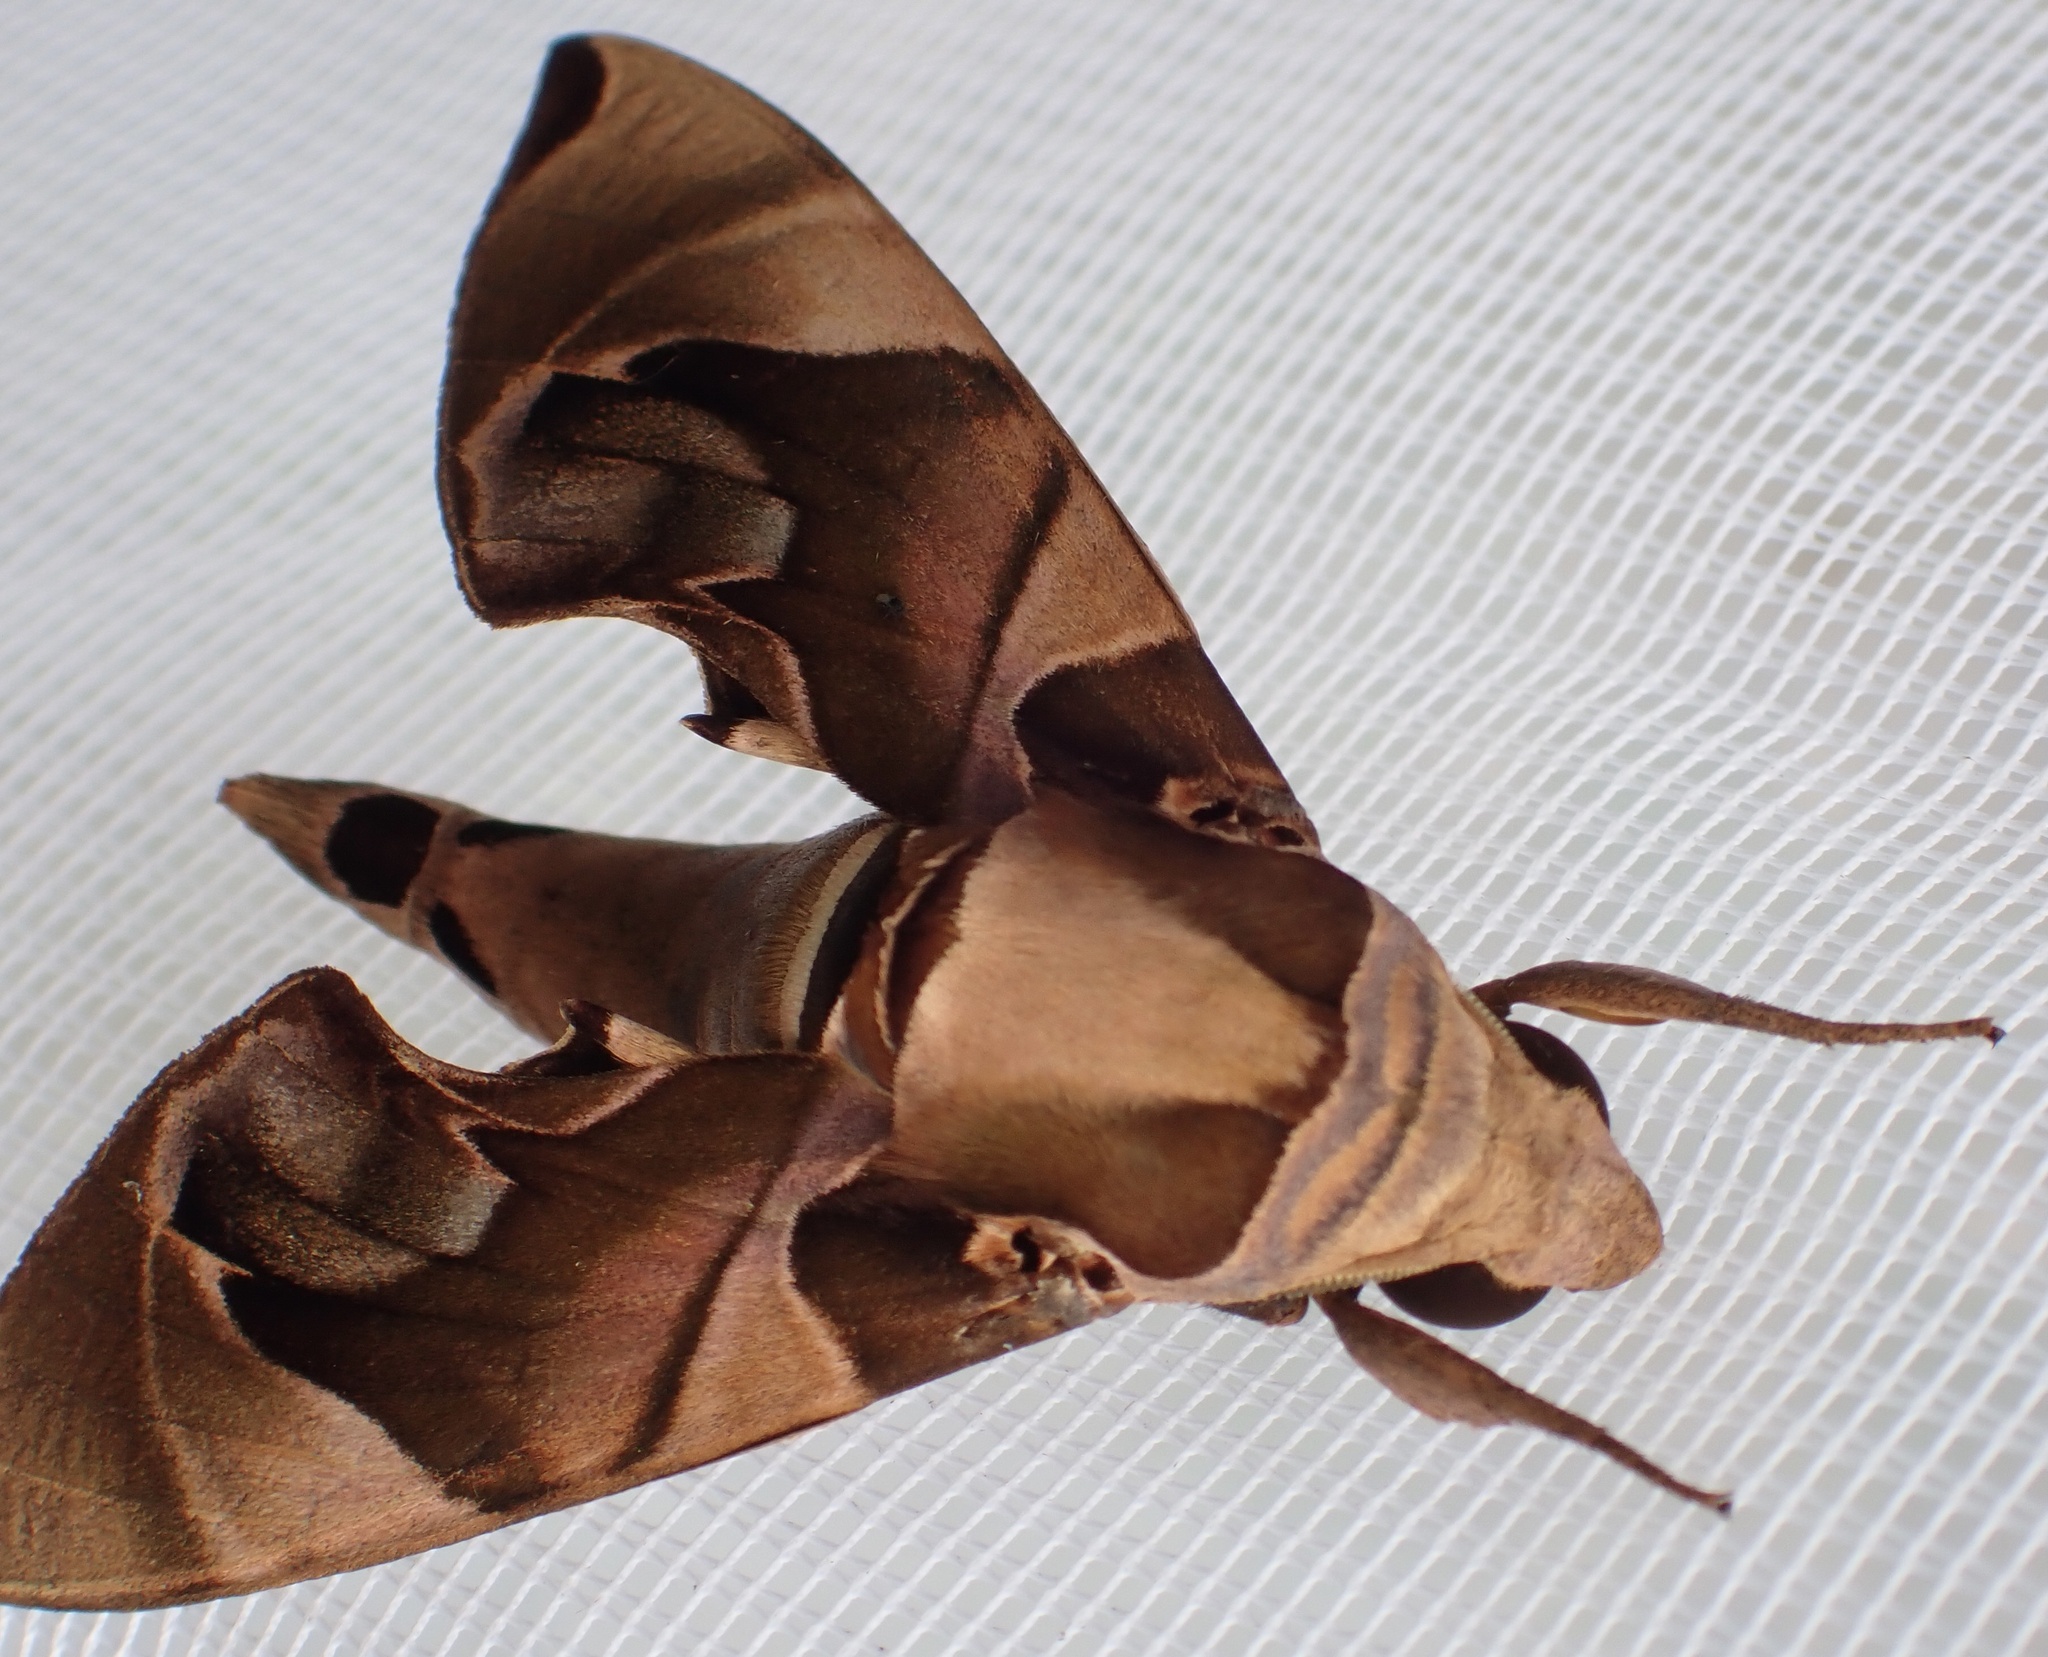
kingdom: Animalia
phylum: Arthropoda
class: Insecta
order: Lepidoptera
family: Sphingidae
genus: Daphnis
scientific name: Daphnis protrudens
